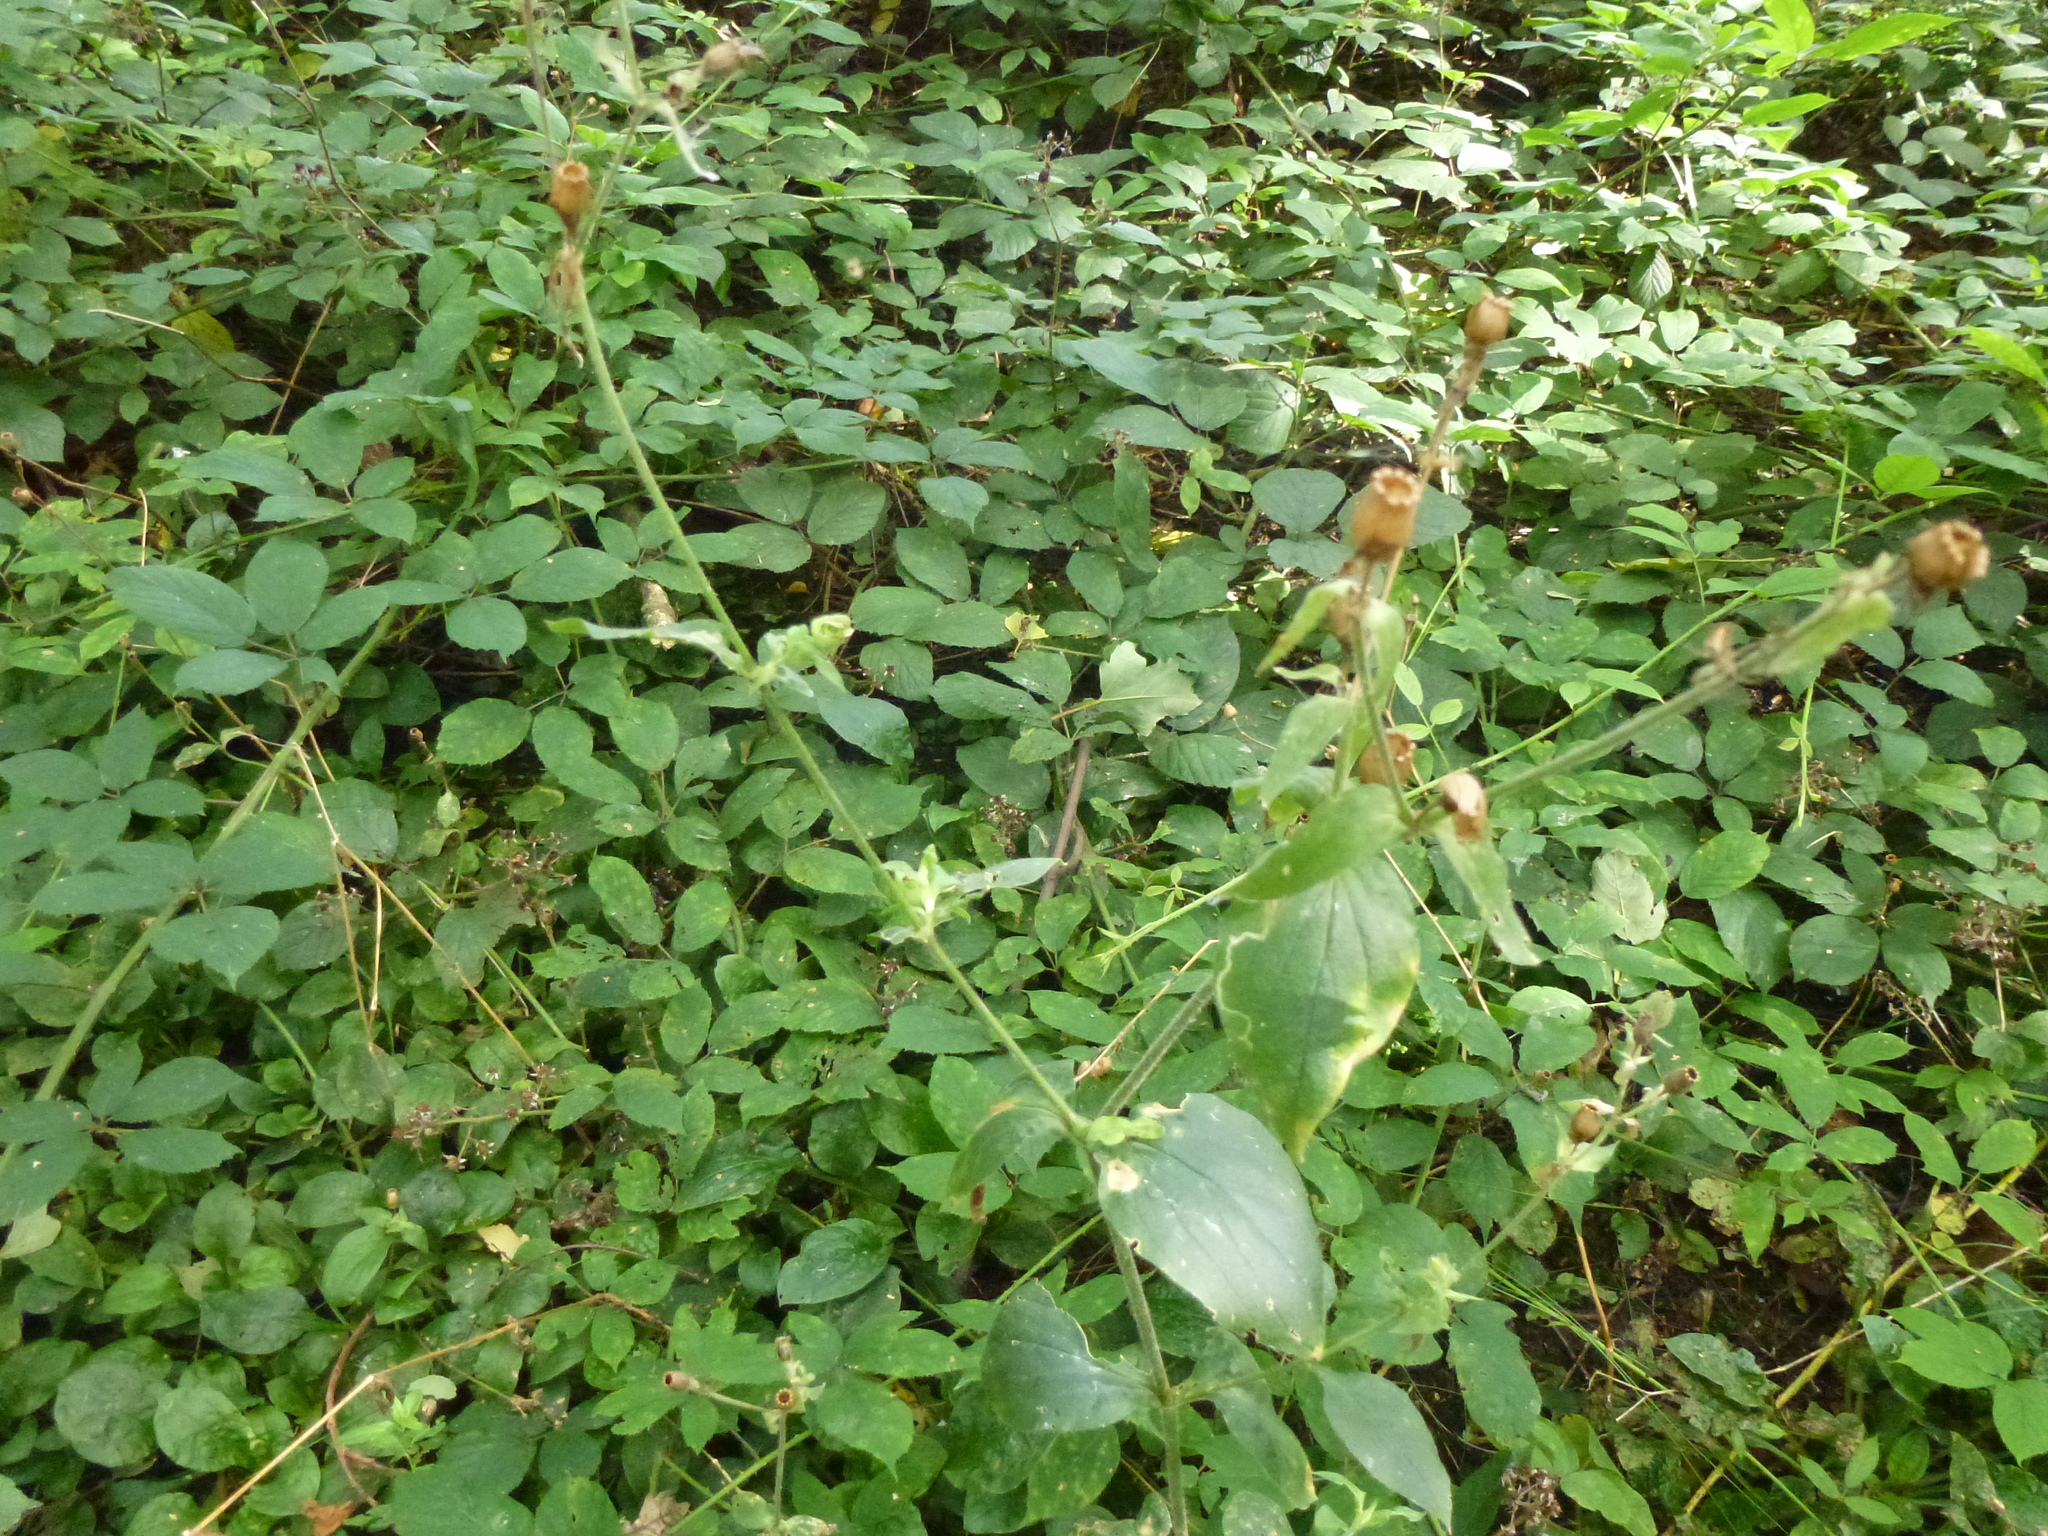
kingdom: Plantae
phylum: Tracheophyta
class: Magnoliopsida
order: Caryophyllales
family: Caryophyllaceae
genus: Silene
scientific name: Silene dioica
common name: Red campion
